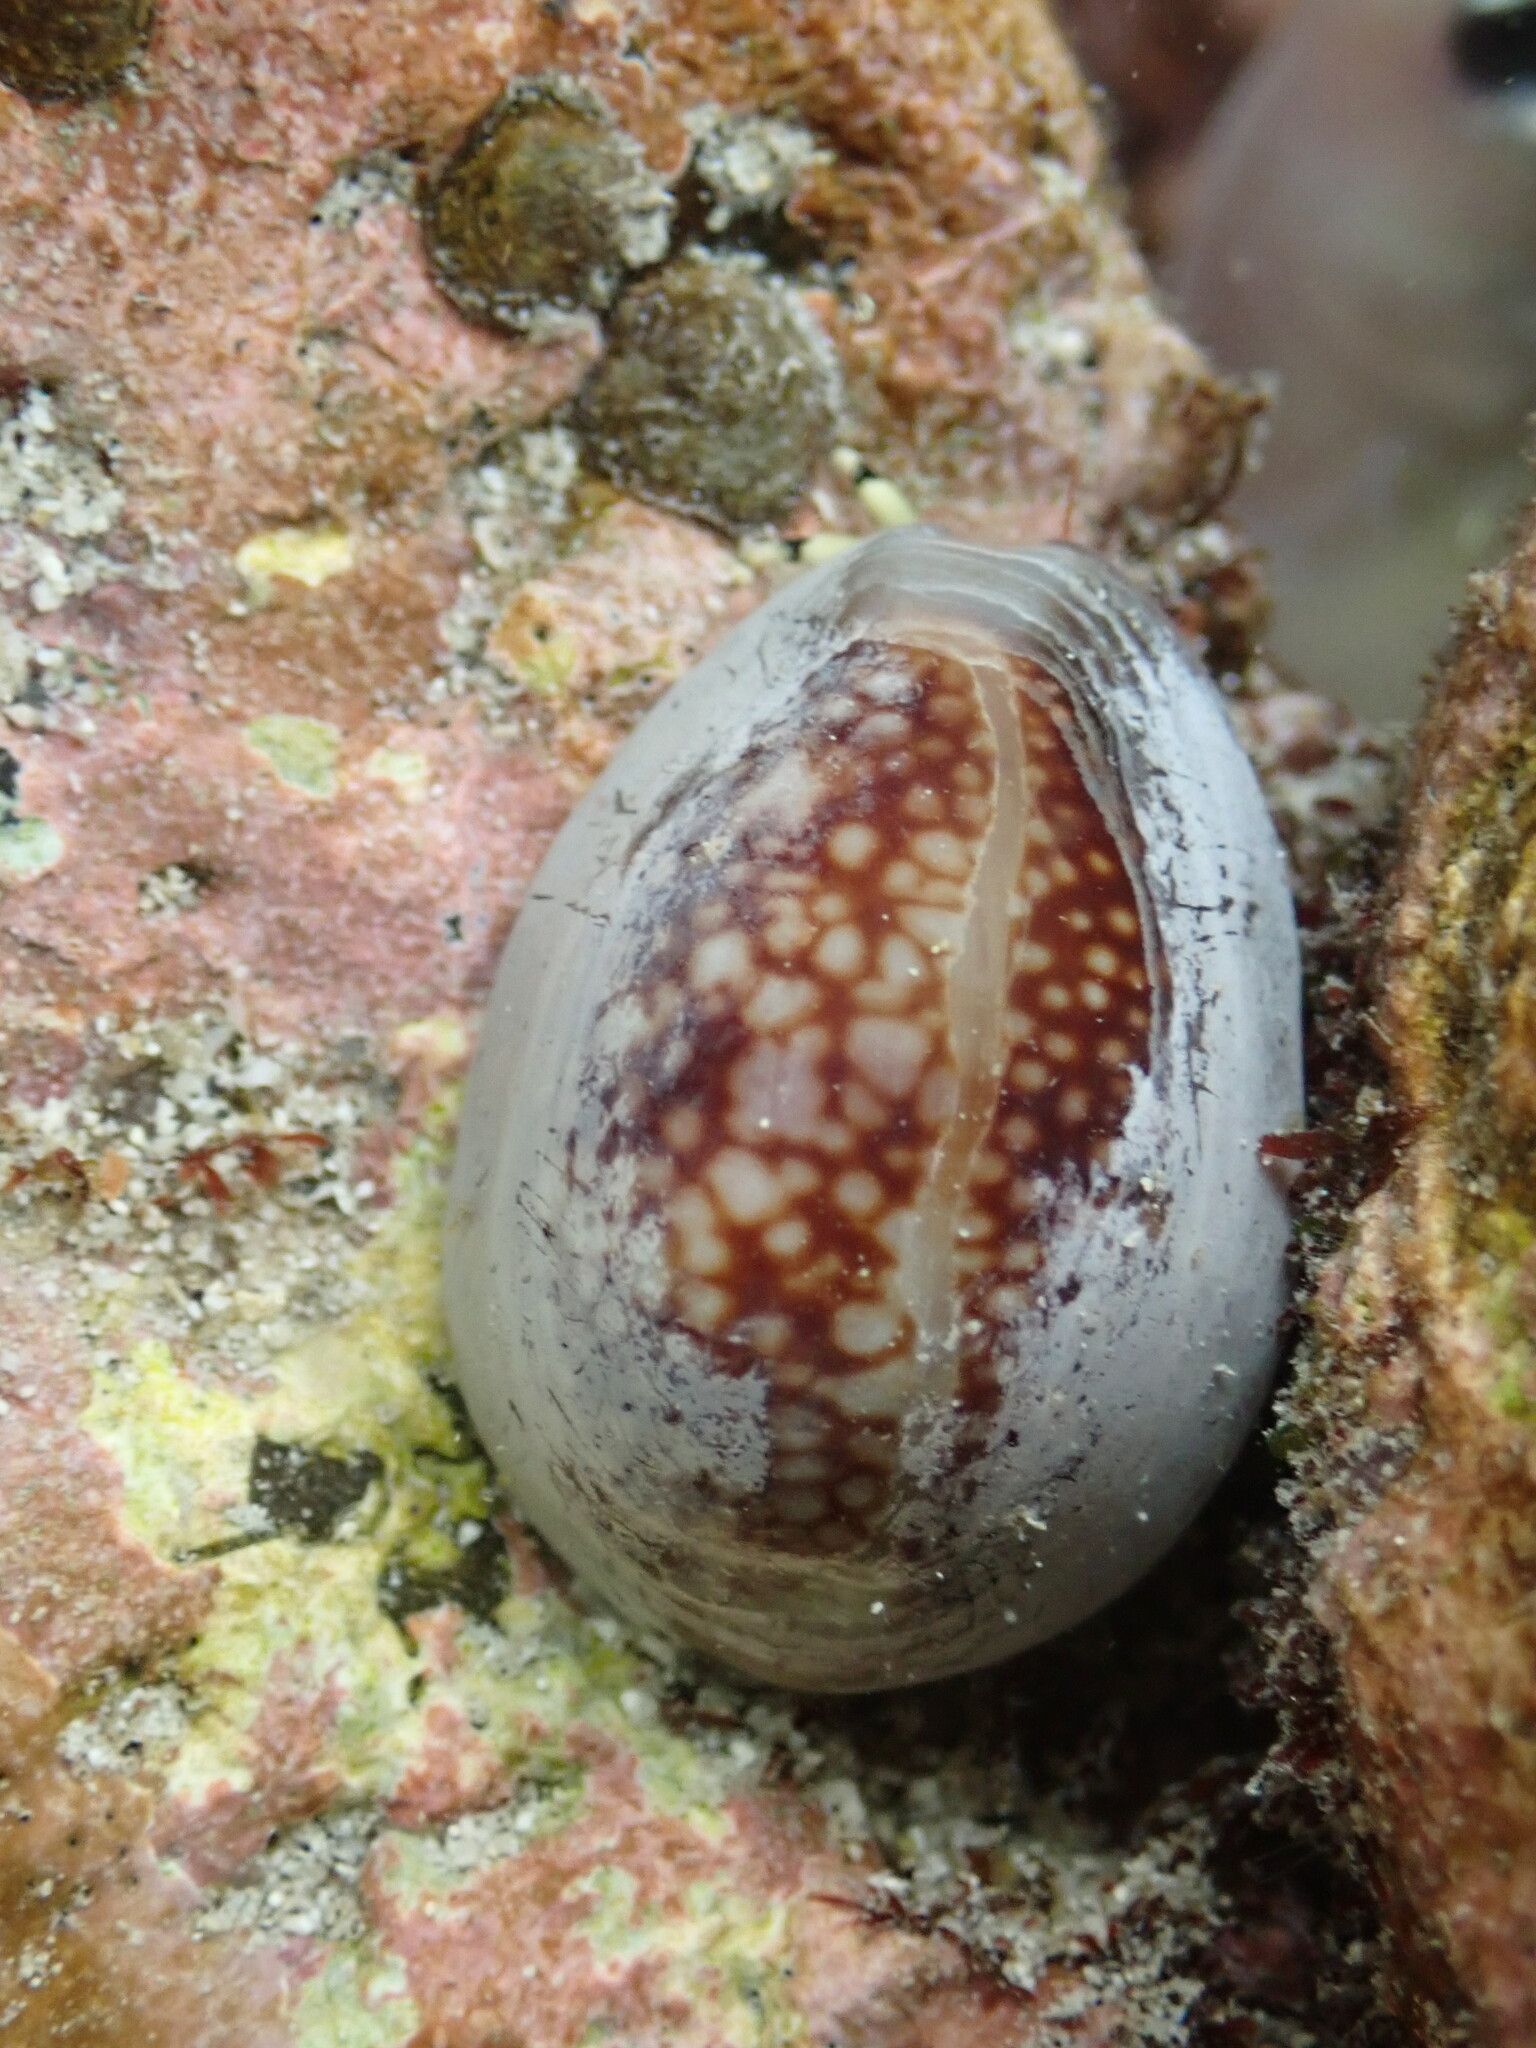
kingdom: Animalia
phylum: Mollusca
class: Gastropoda
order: Littorinimorpha
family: Cypraeidae
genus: Monetaria
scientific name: Monetaria caputophidii
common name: Snake's head cowry
